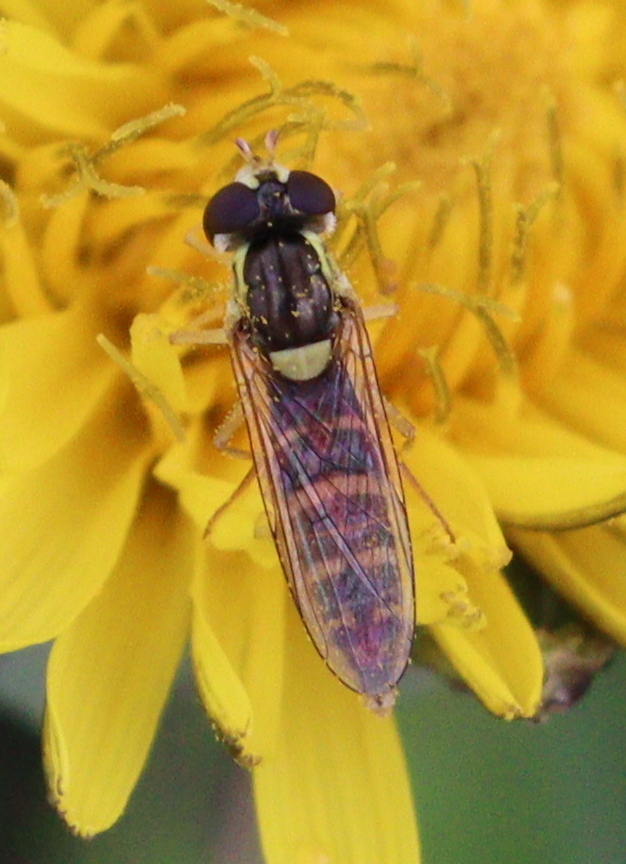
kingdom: Animalia
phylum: Arthropoda
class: Insecta
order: Diptera
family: Syrphidae
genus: Sphaerophoria
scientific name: Sphaerophoria
